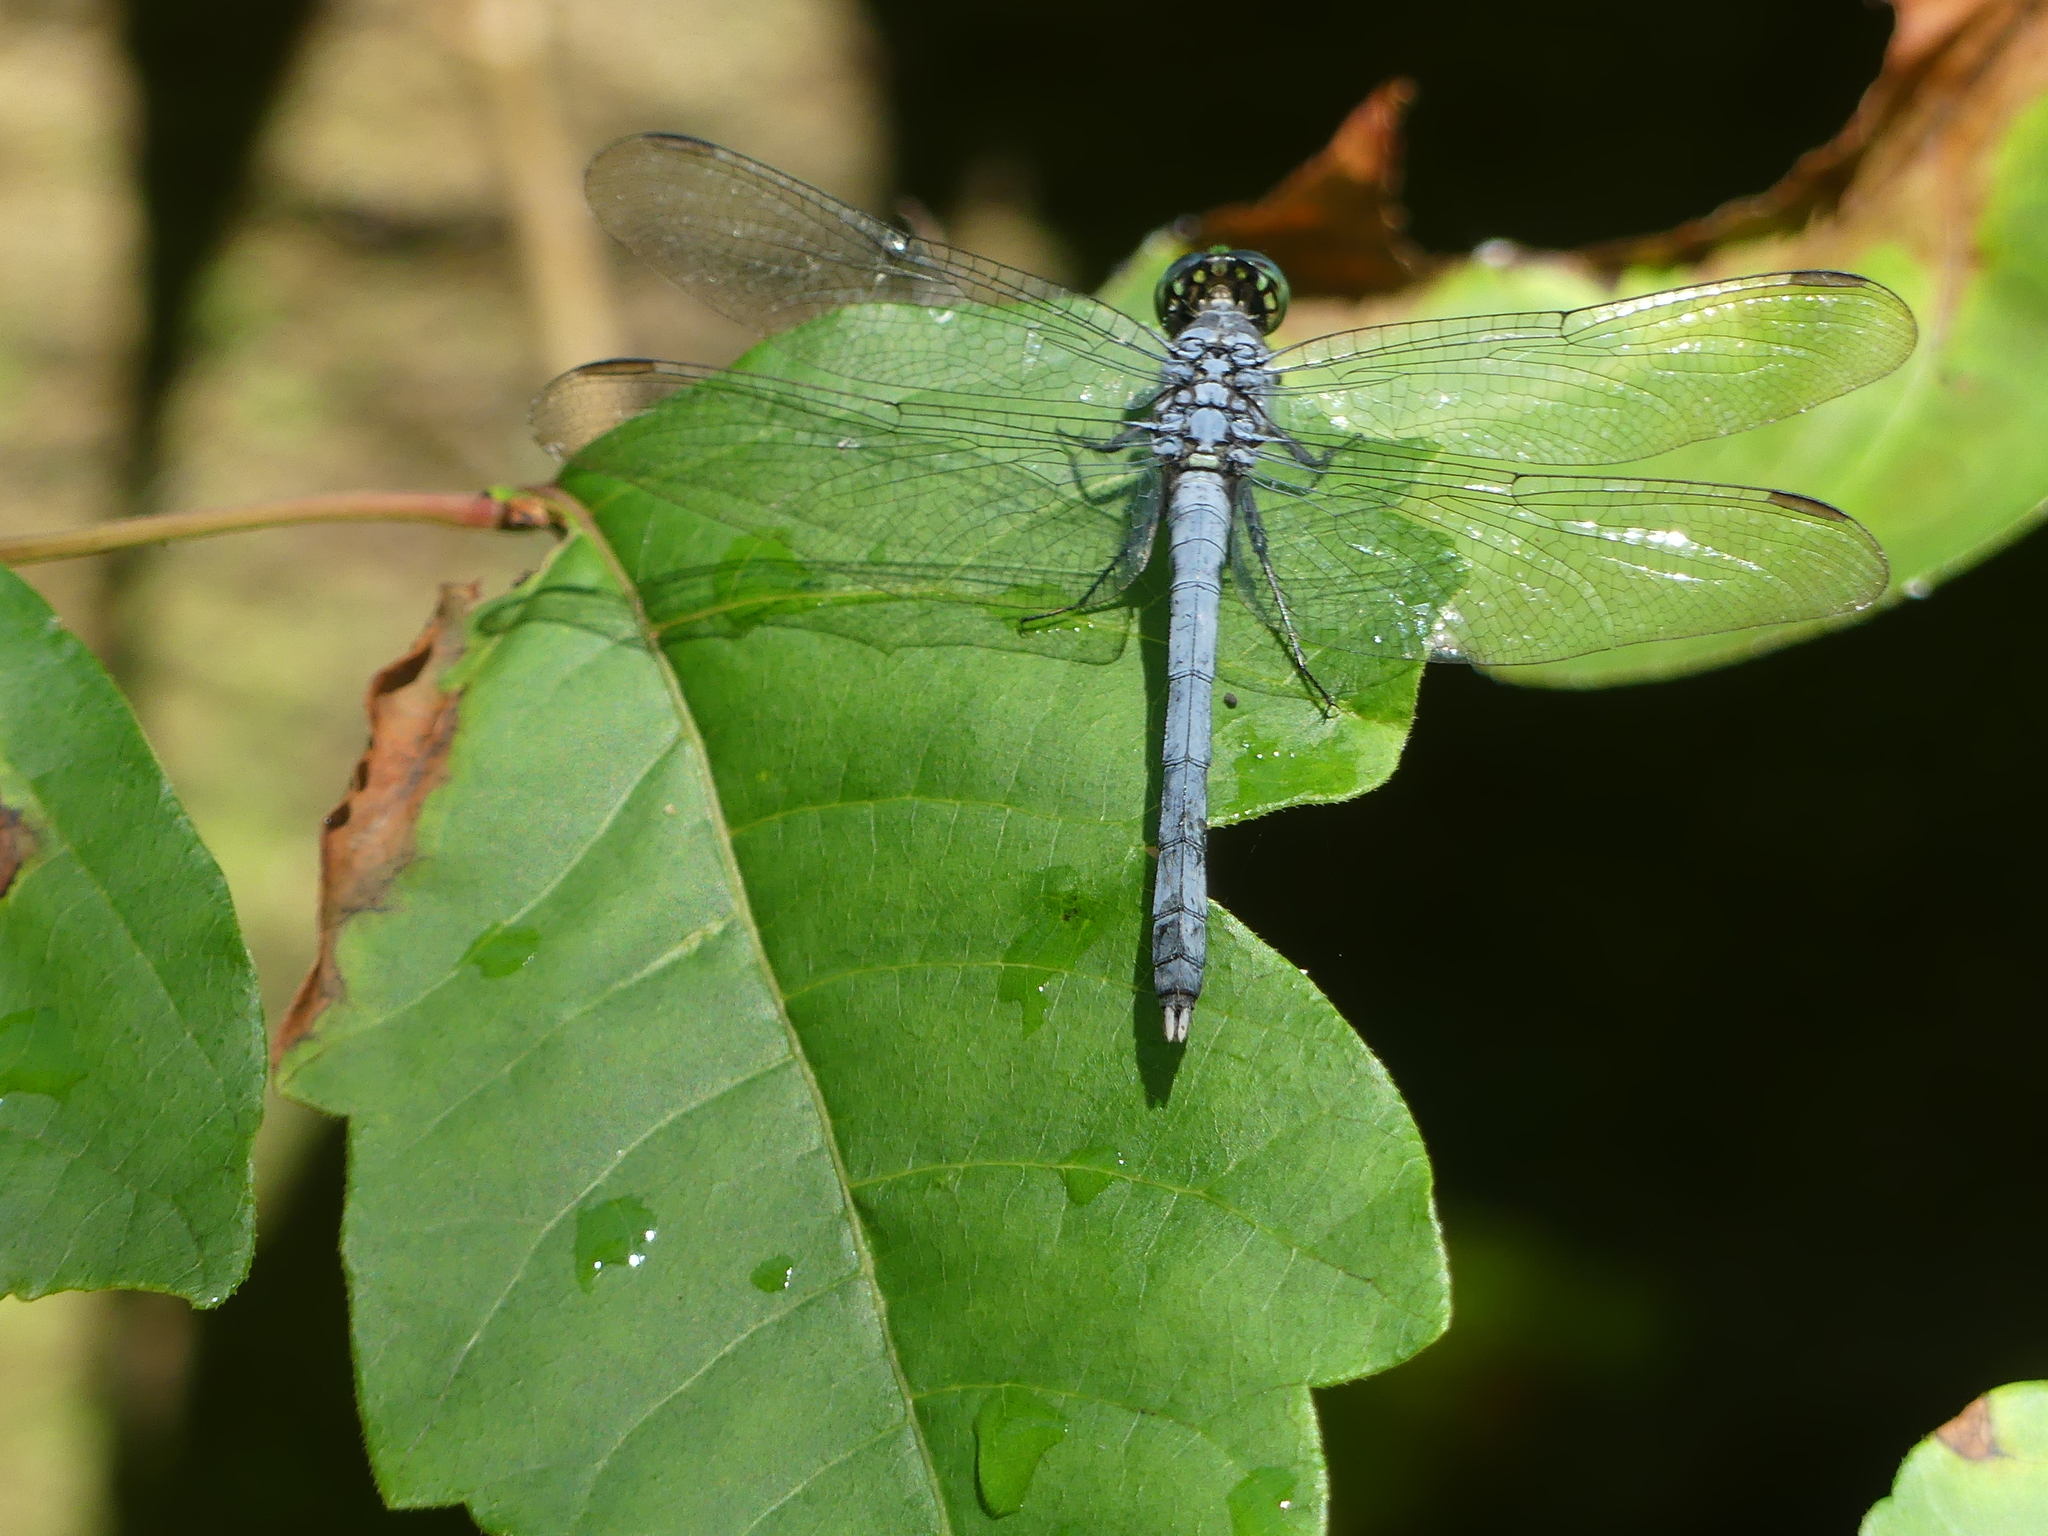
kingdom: Animalia
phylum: Arthropoda
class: Insecta
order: Odonata
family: Libellulidae
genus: Erythemis
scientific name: Erythemis simplicicollis
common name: Eastern pondhawk
